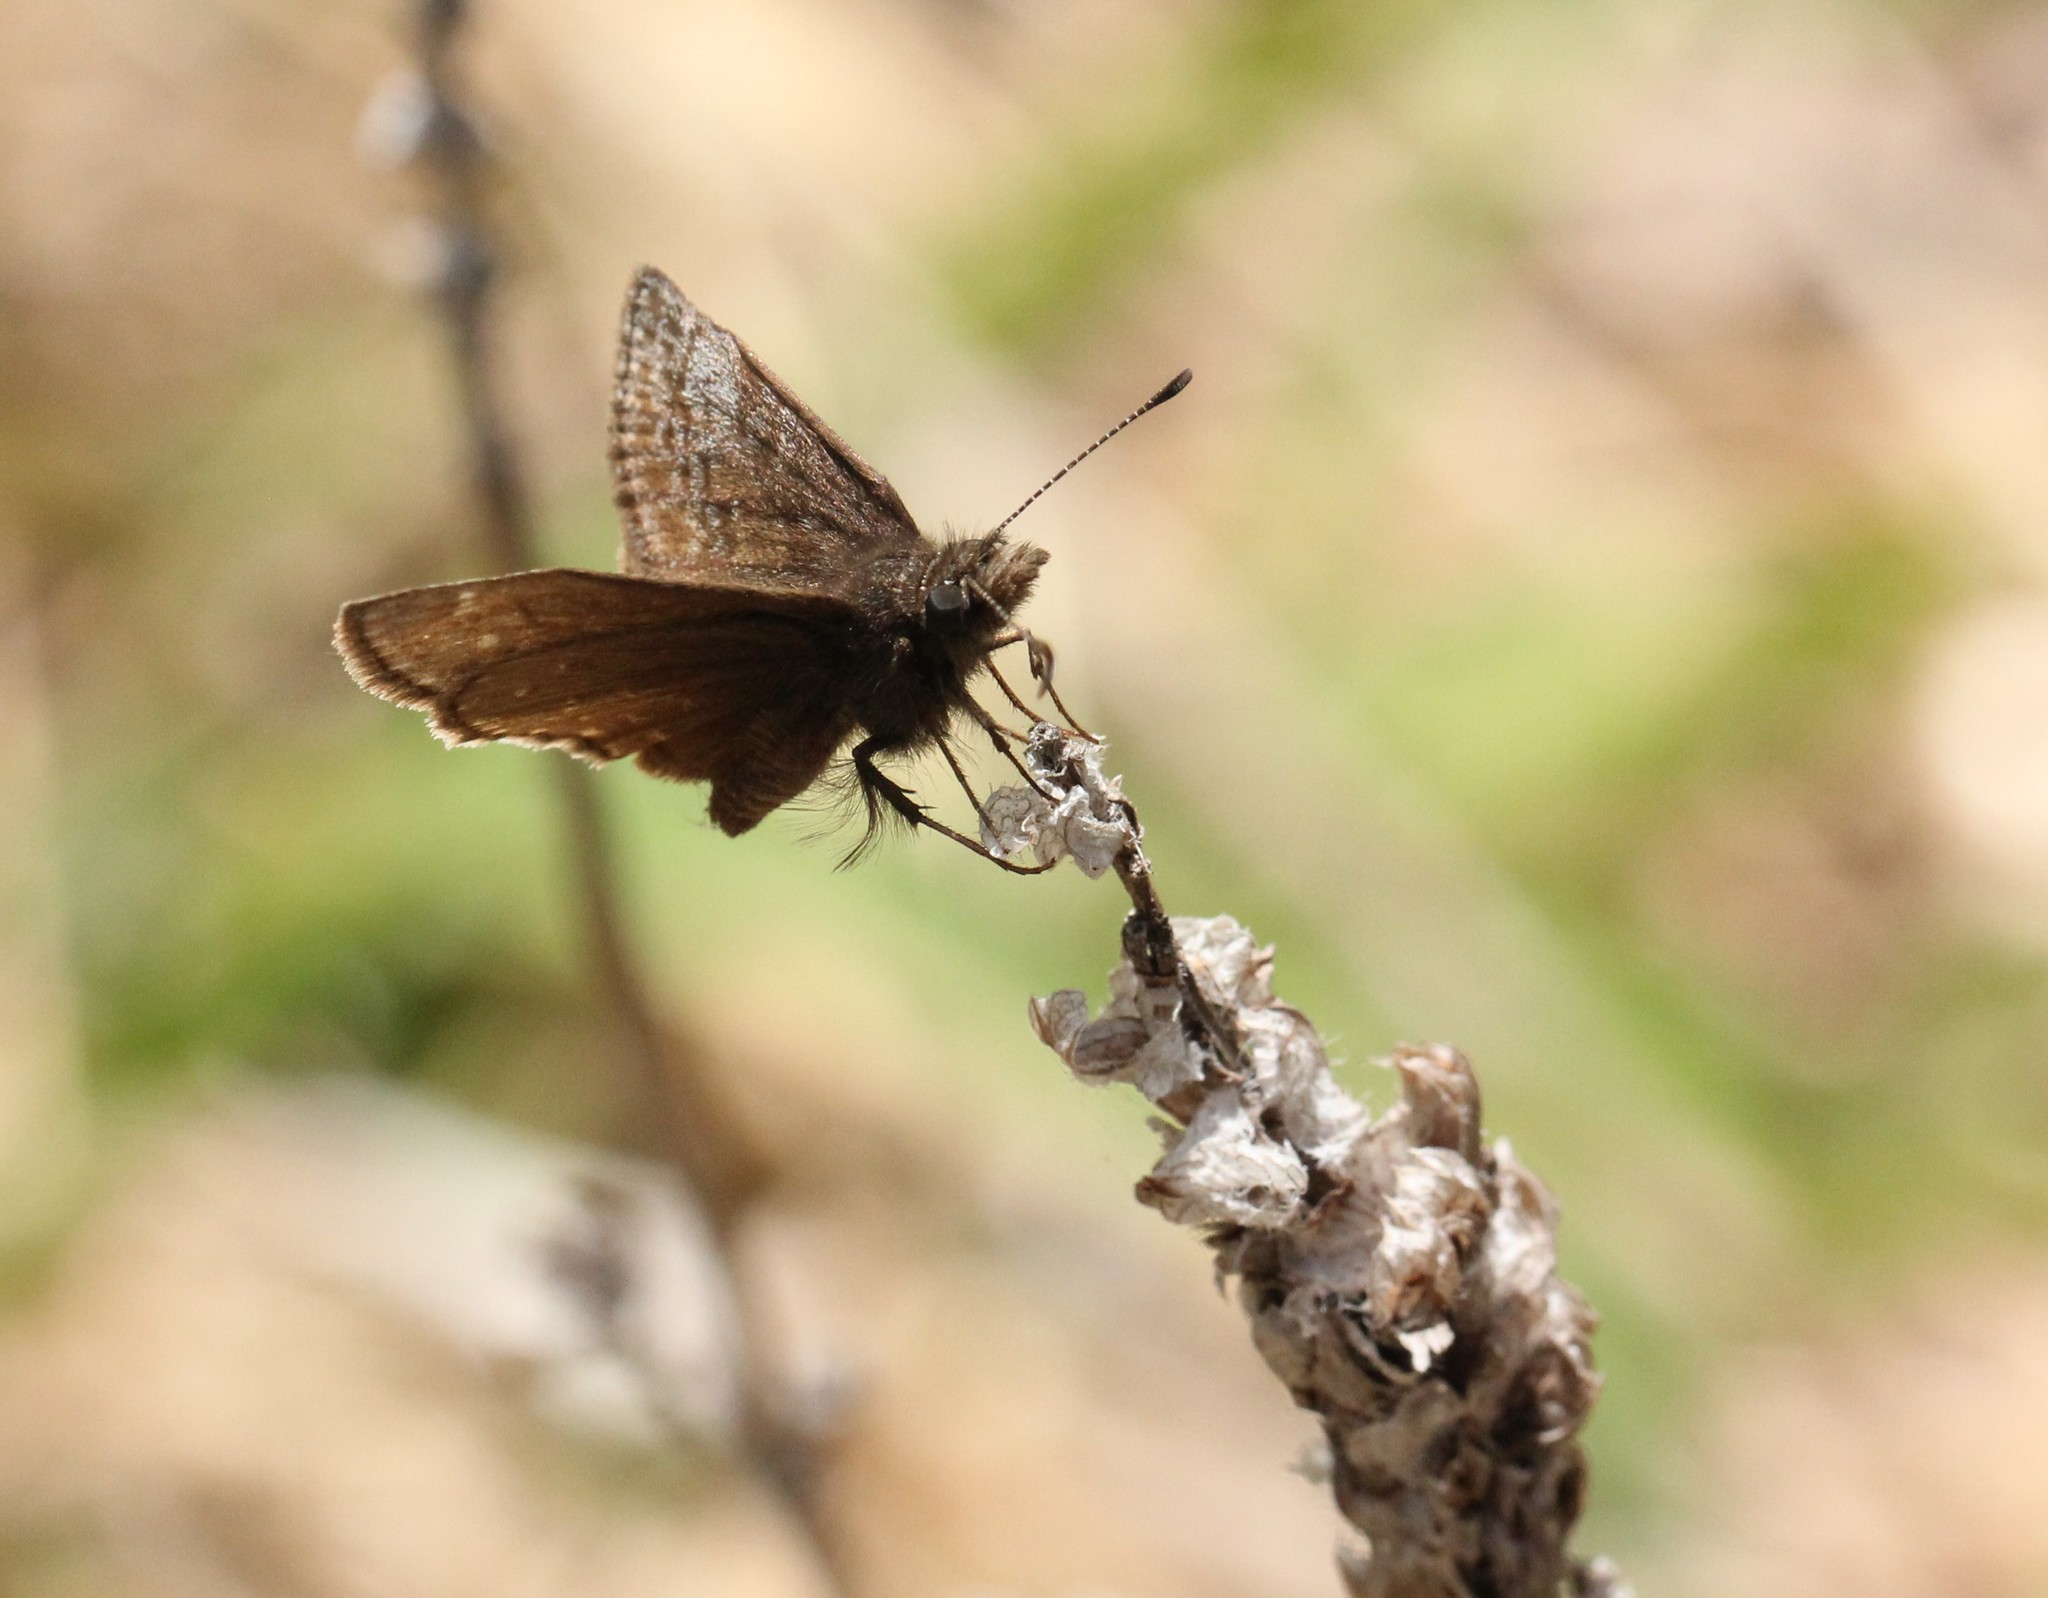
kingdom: Animalia
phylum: Arthropoda
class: Insecta
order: Lepidoptera
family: Hesperiidae
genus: Erynnis
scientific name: Erynnis icelus
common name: Dreamy duskywing
